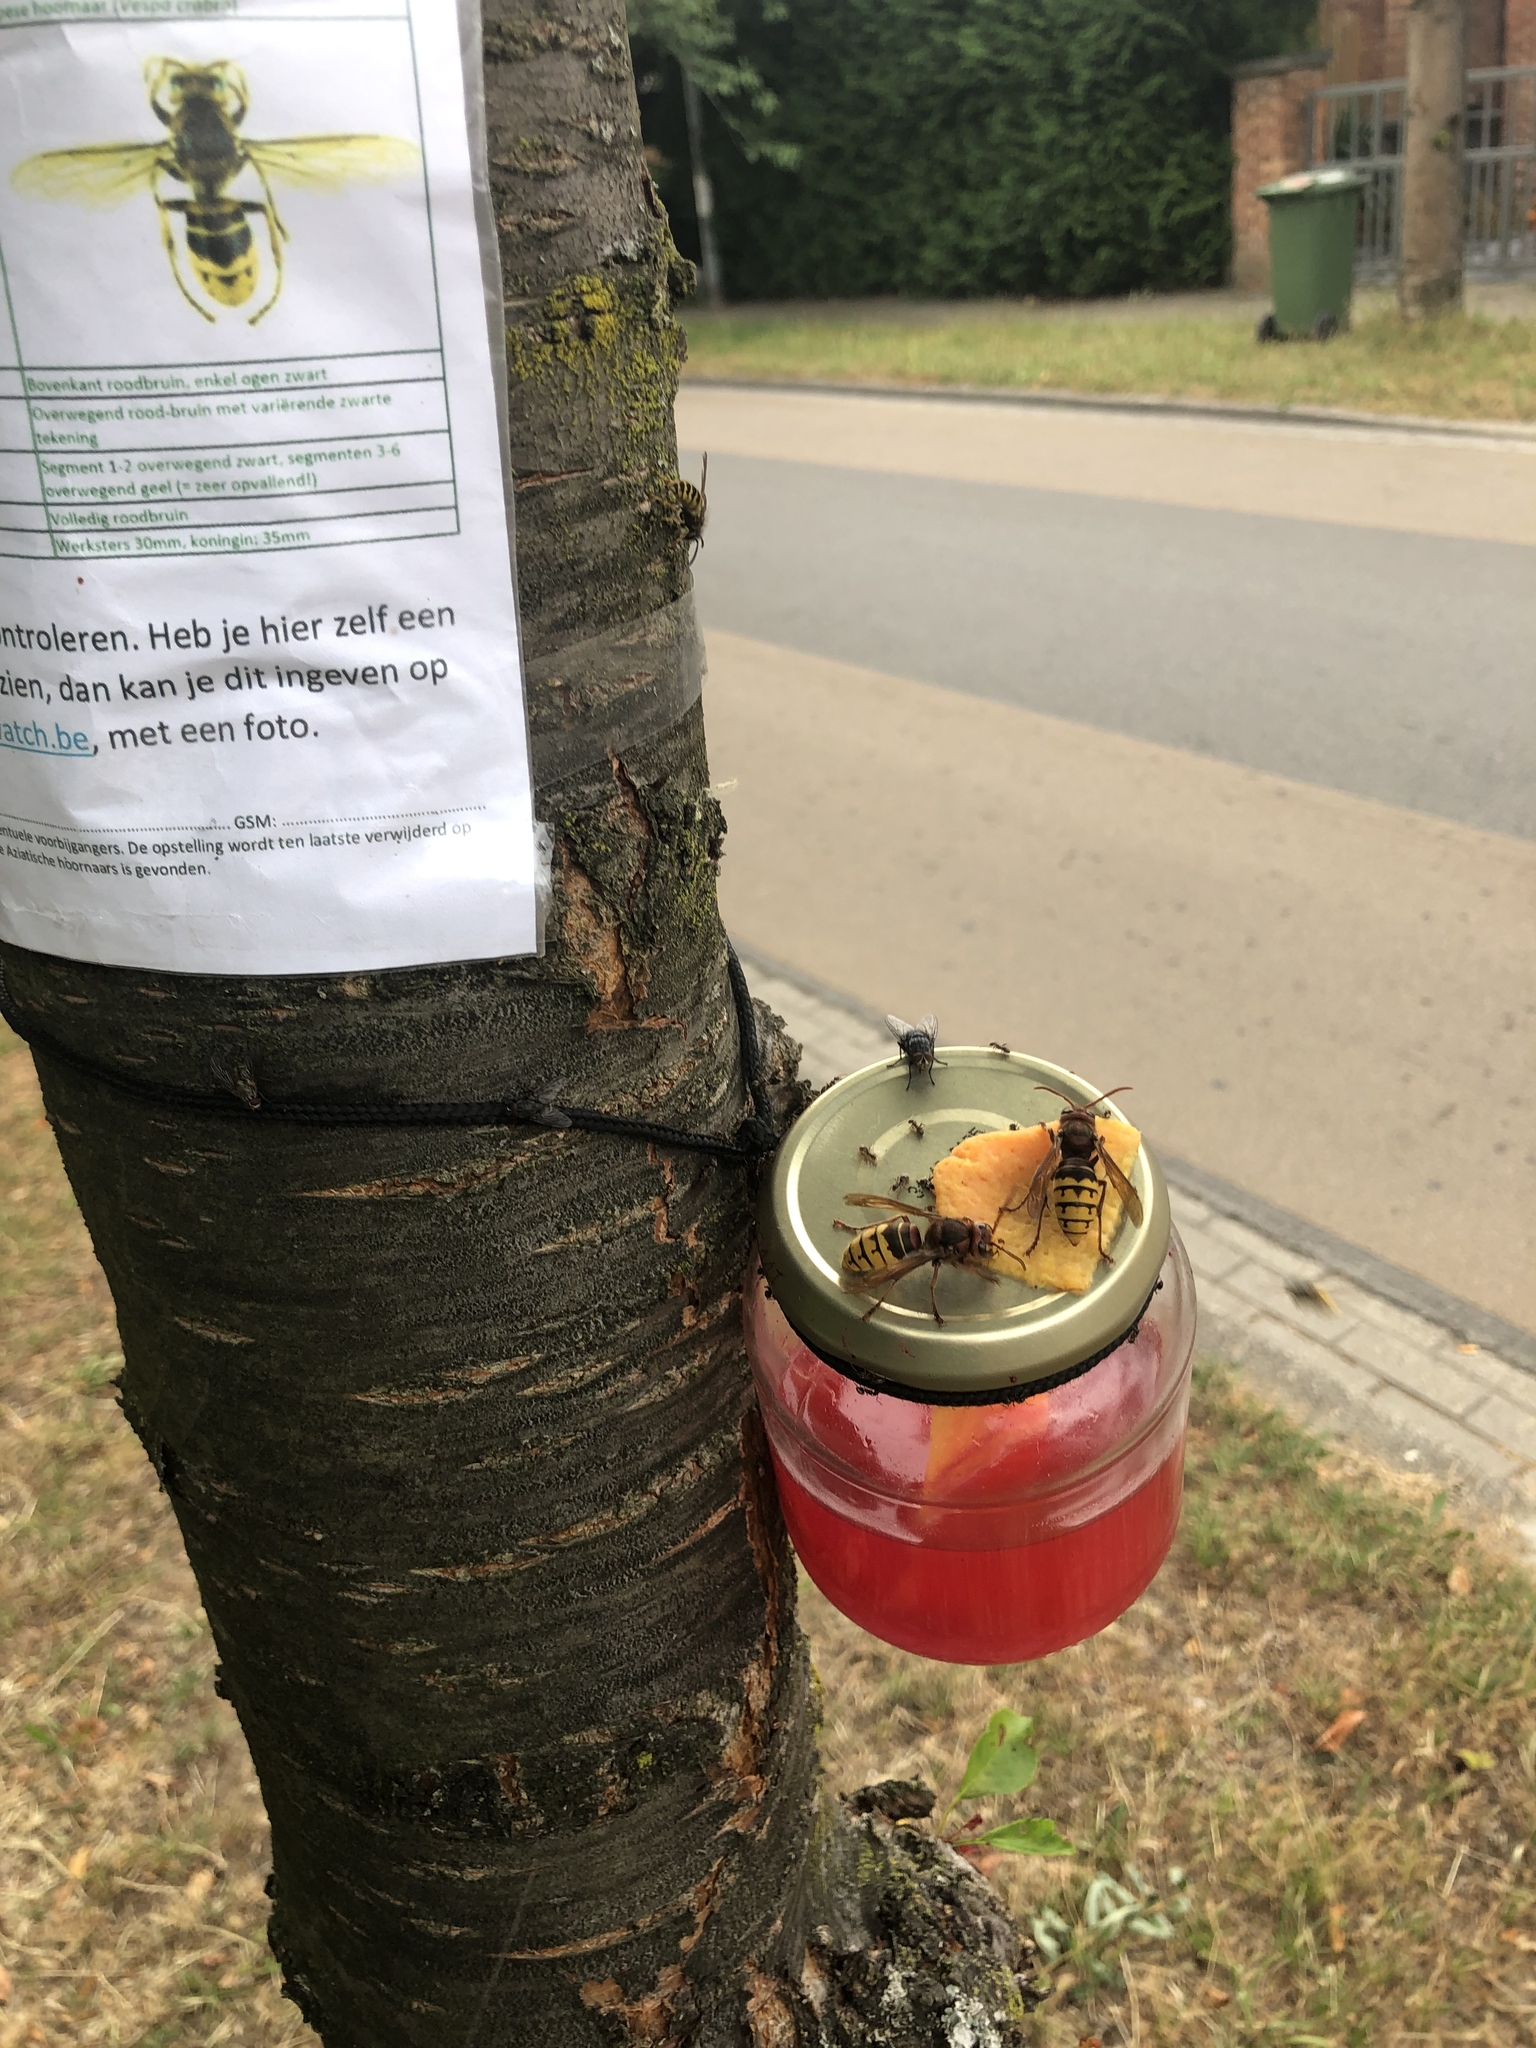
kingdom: Animalia
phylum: Arthropoda
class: Insecta
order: Hymenoptera
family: Vespidae
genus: Vespa
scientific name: Vespa crabro
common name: Hornet
